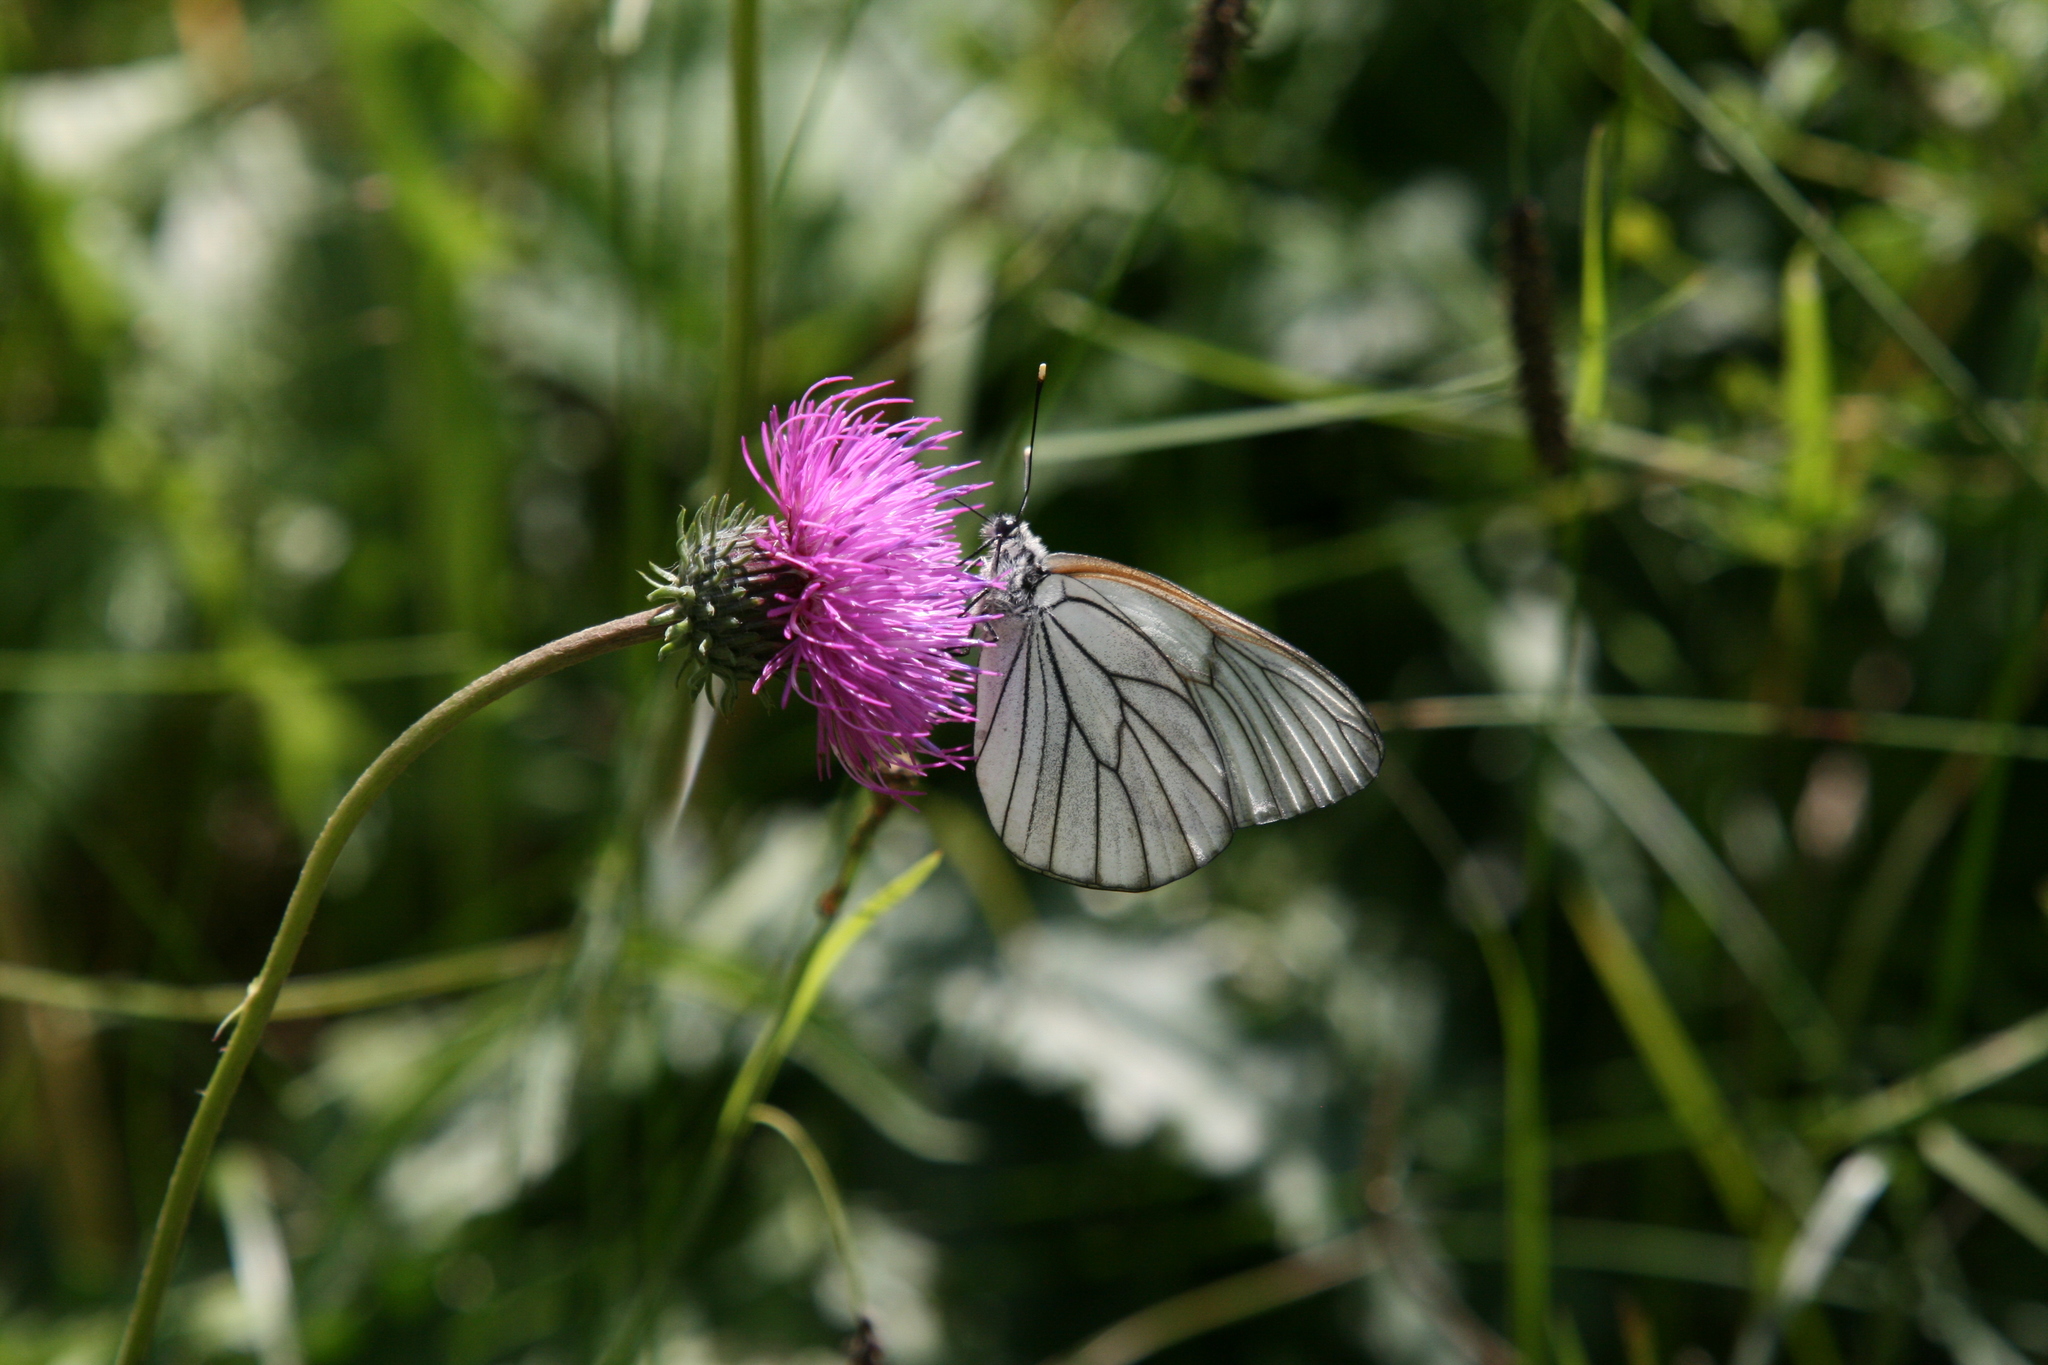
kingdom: Animalia
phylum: Arthropoda
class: Insecta
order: Lepidoptera
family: Pieridae
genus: Aporia
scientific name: Aporia crataegi
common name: Black-veined white
